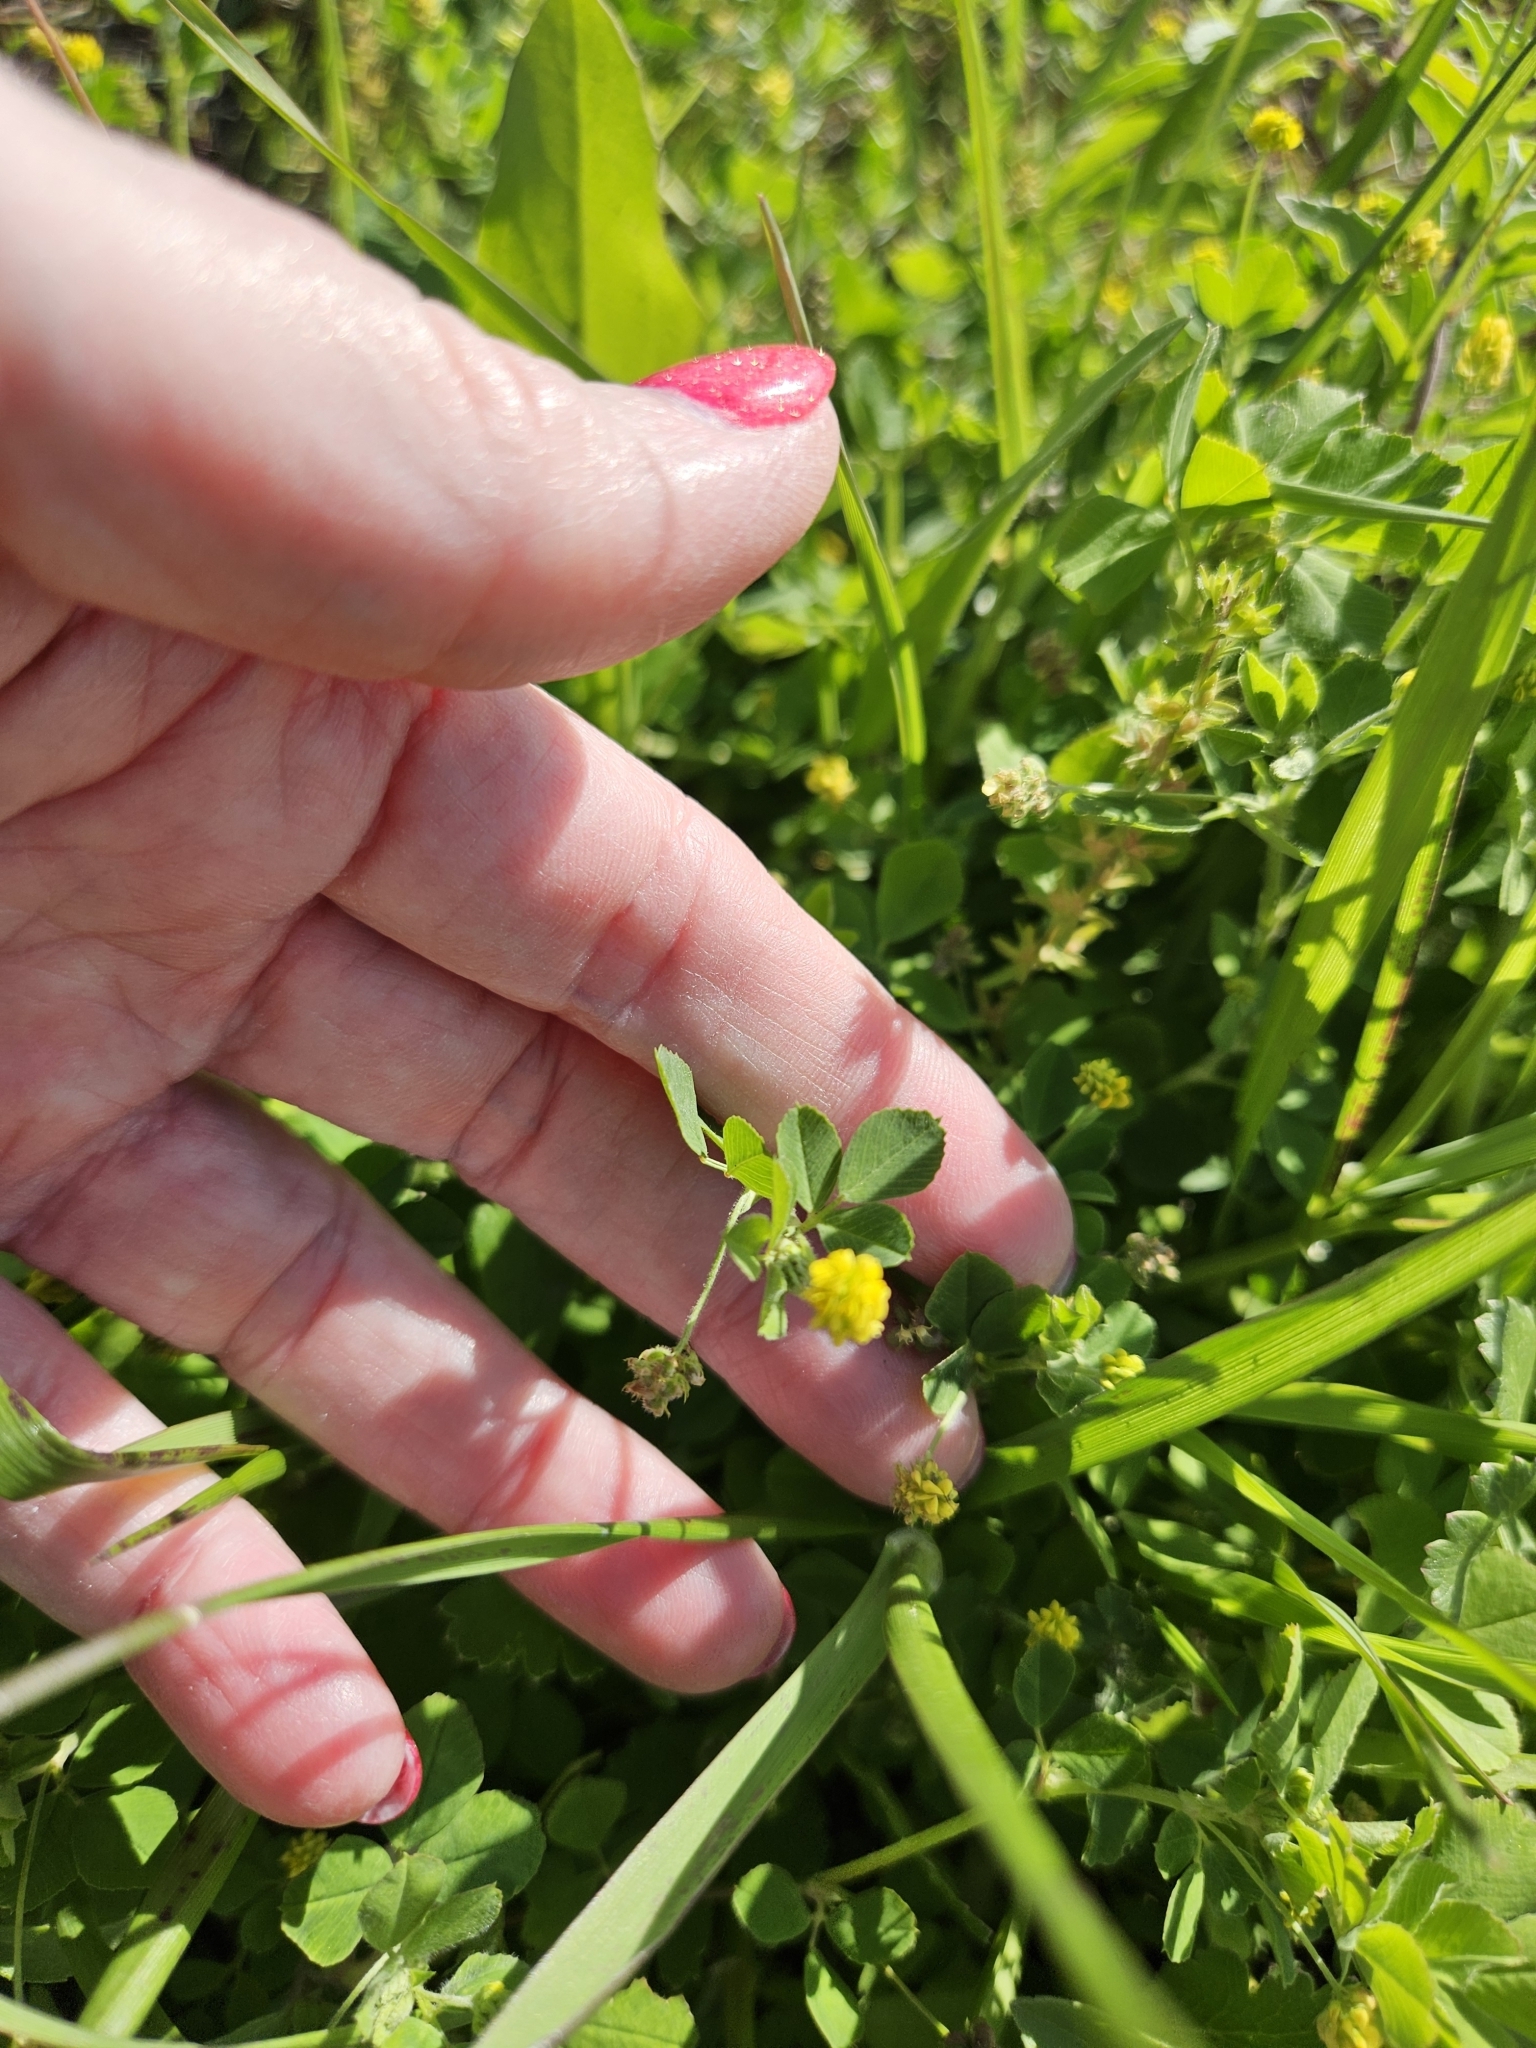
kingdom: Plantae
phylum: Tracheophyta
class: Magnoliopsida
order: Fabales
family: Fabaceae
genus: Medicago
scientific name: Medicago lupulina
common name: Black medick
